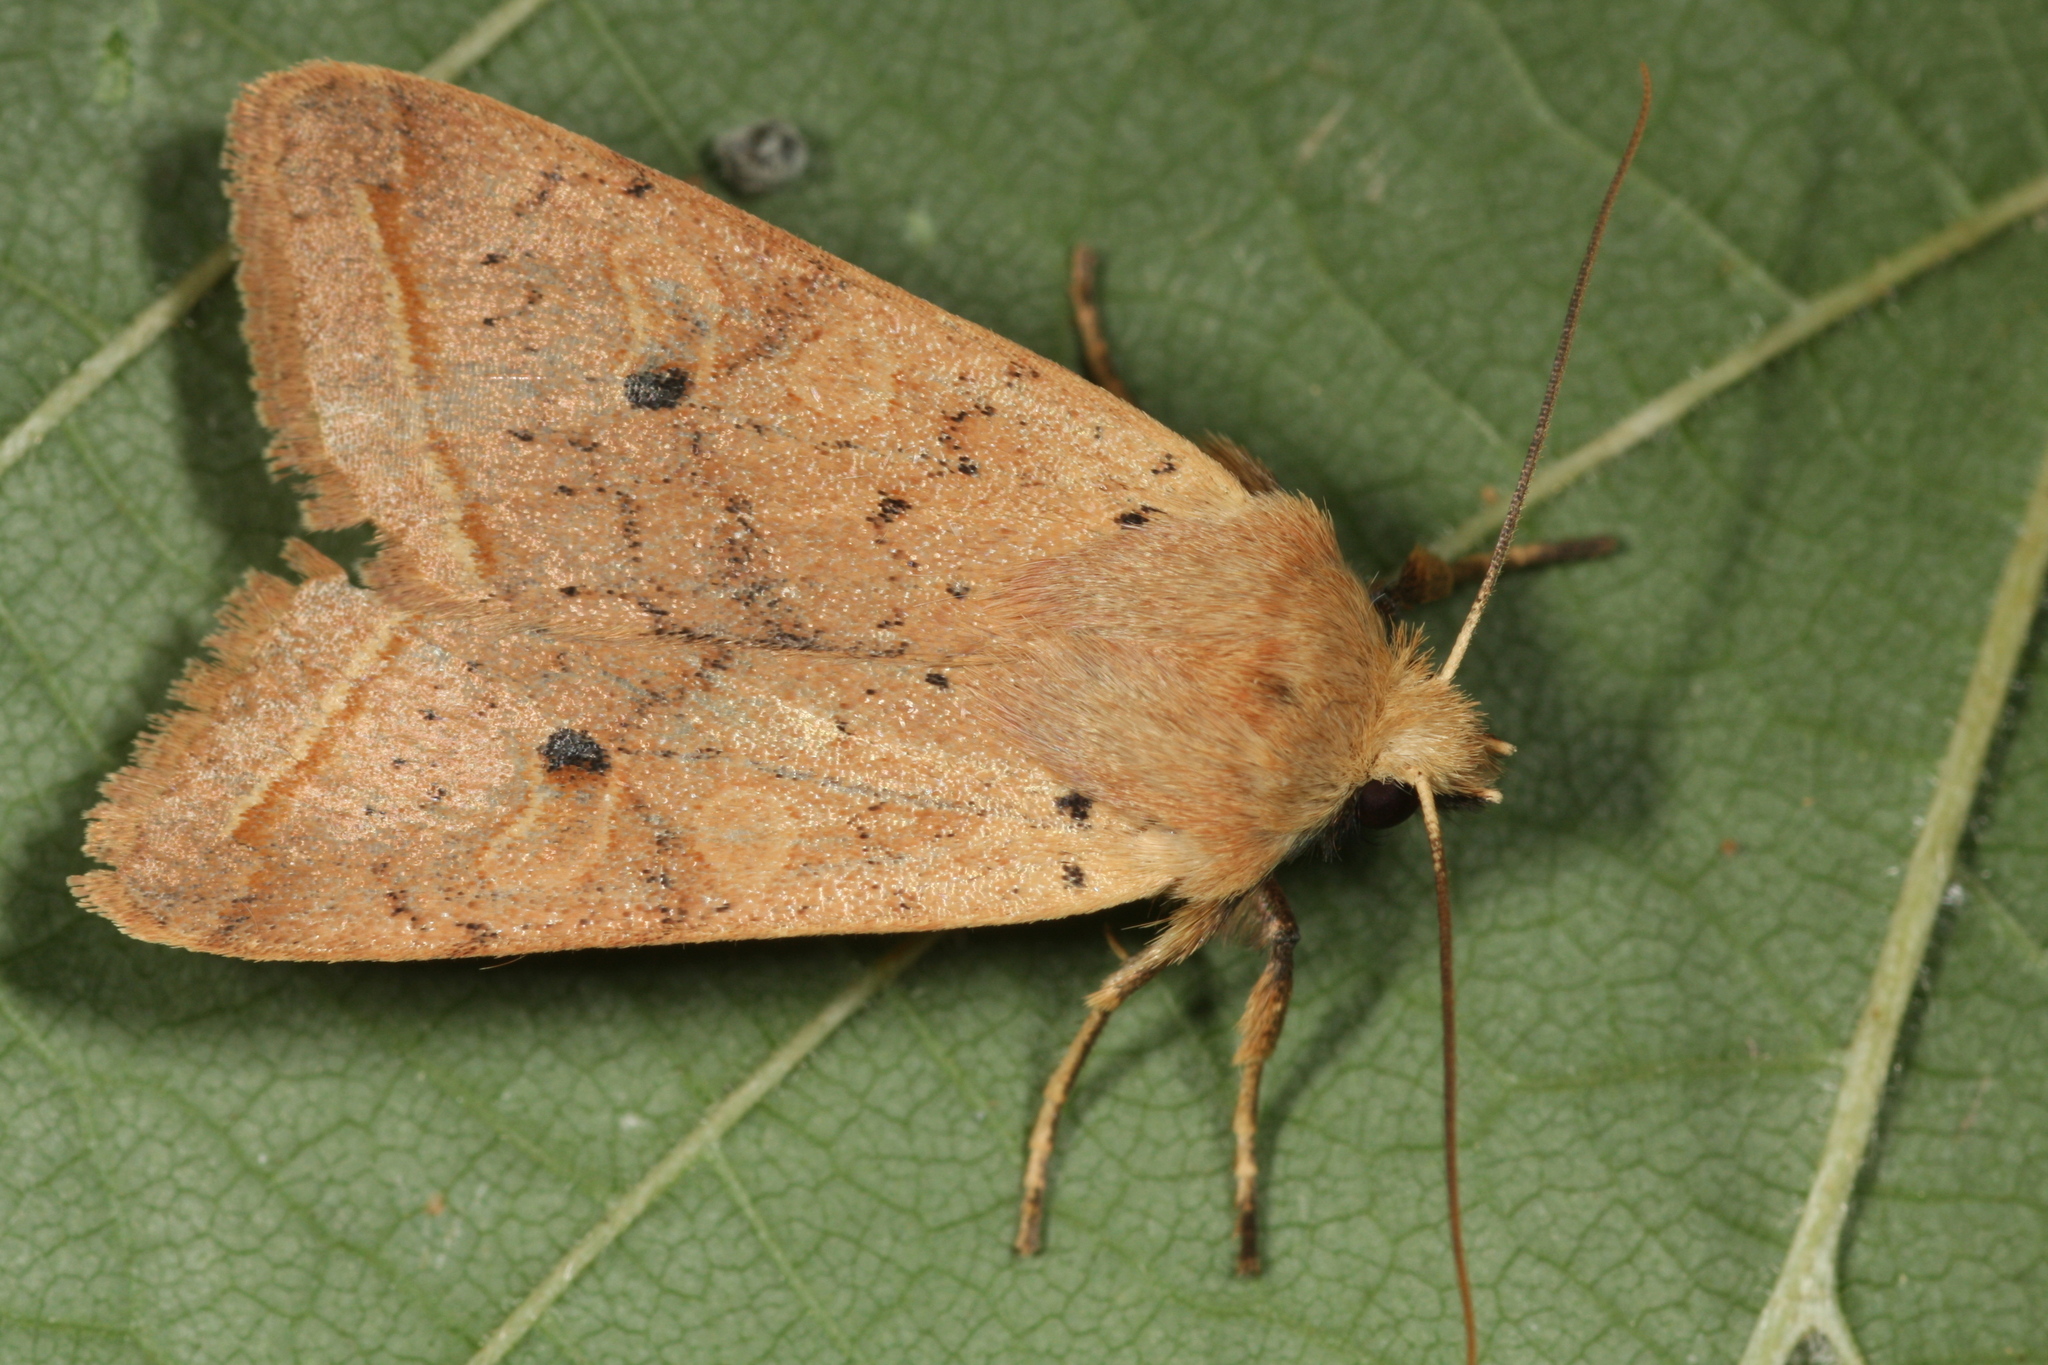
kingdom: Animalia
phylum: Arthropoda
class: Insecta
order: Lepidoptera
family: Noctuidae
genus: Agrochola
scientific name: Agrochola macilenta
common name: Yellow-line quaker
